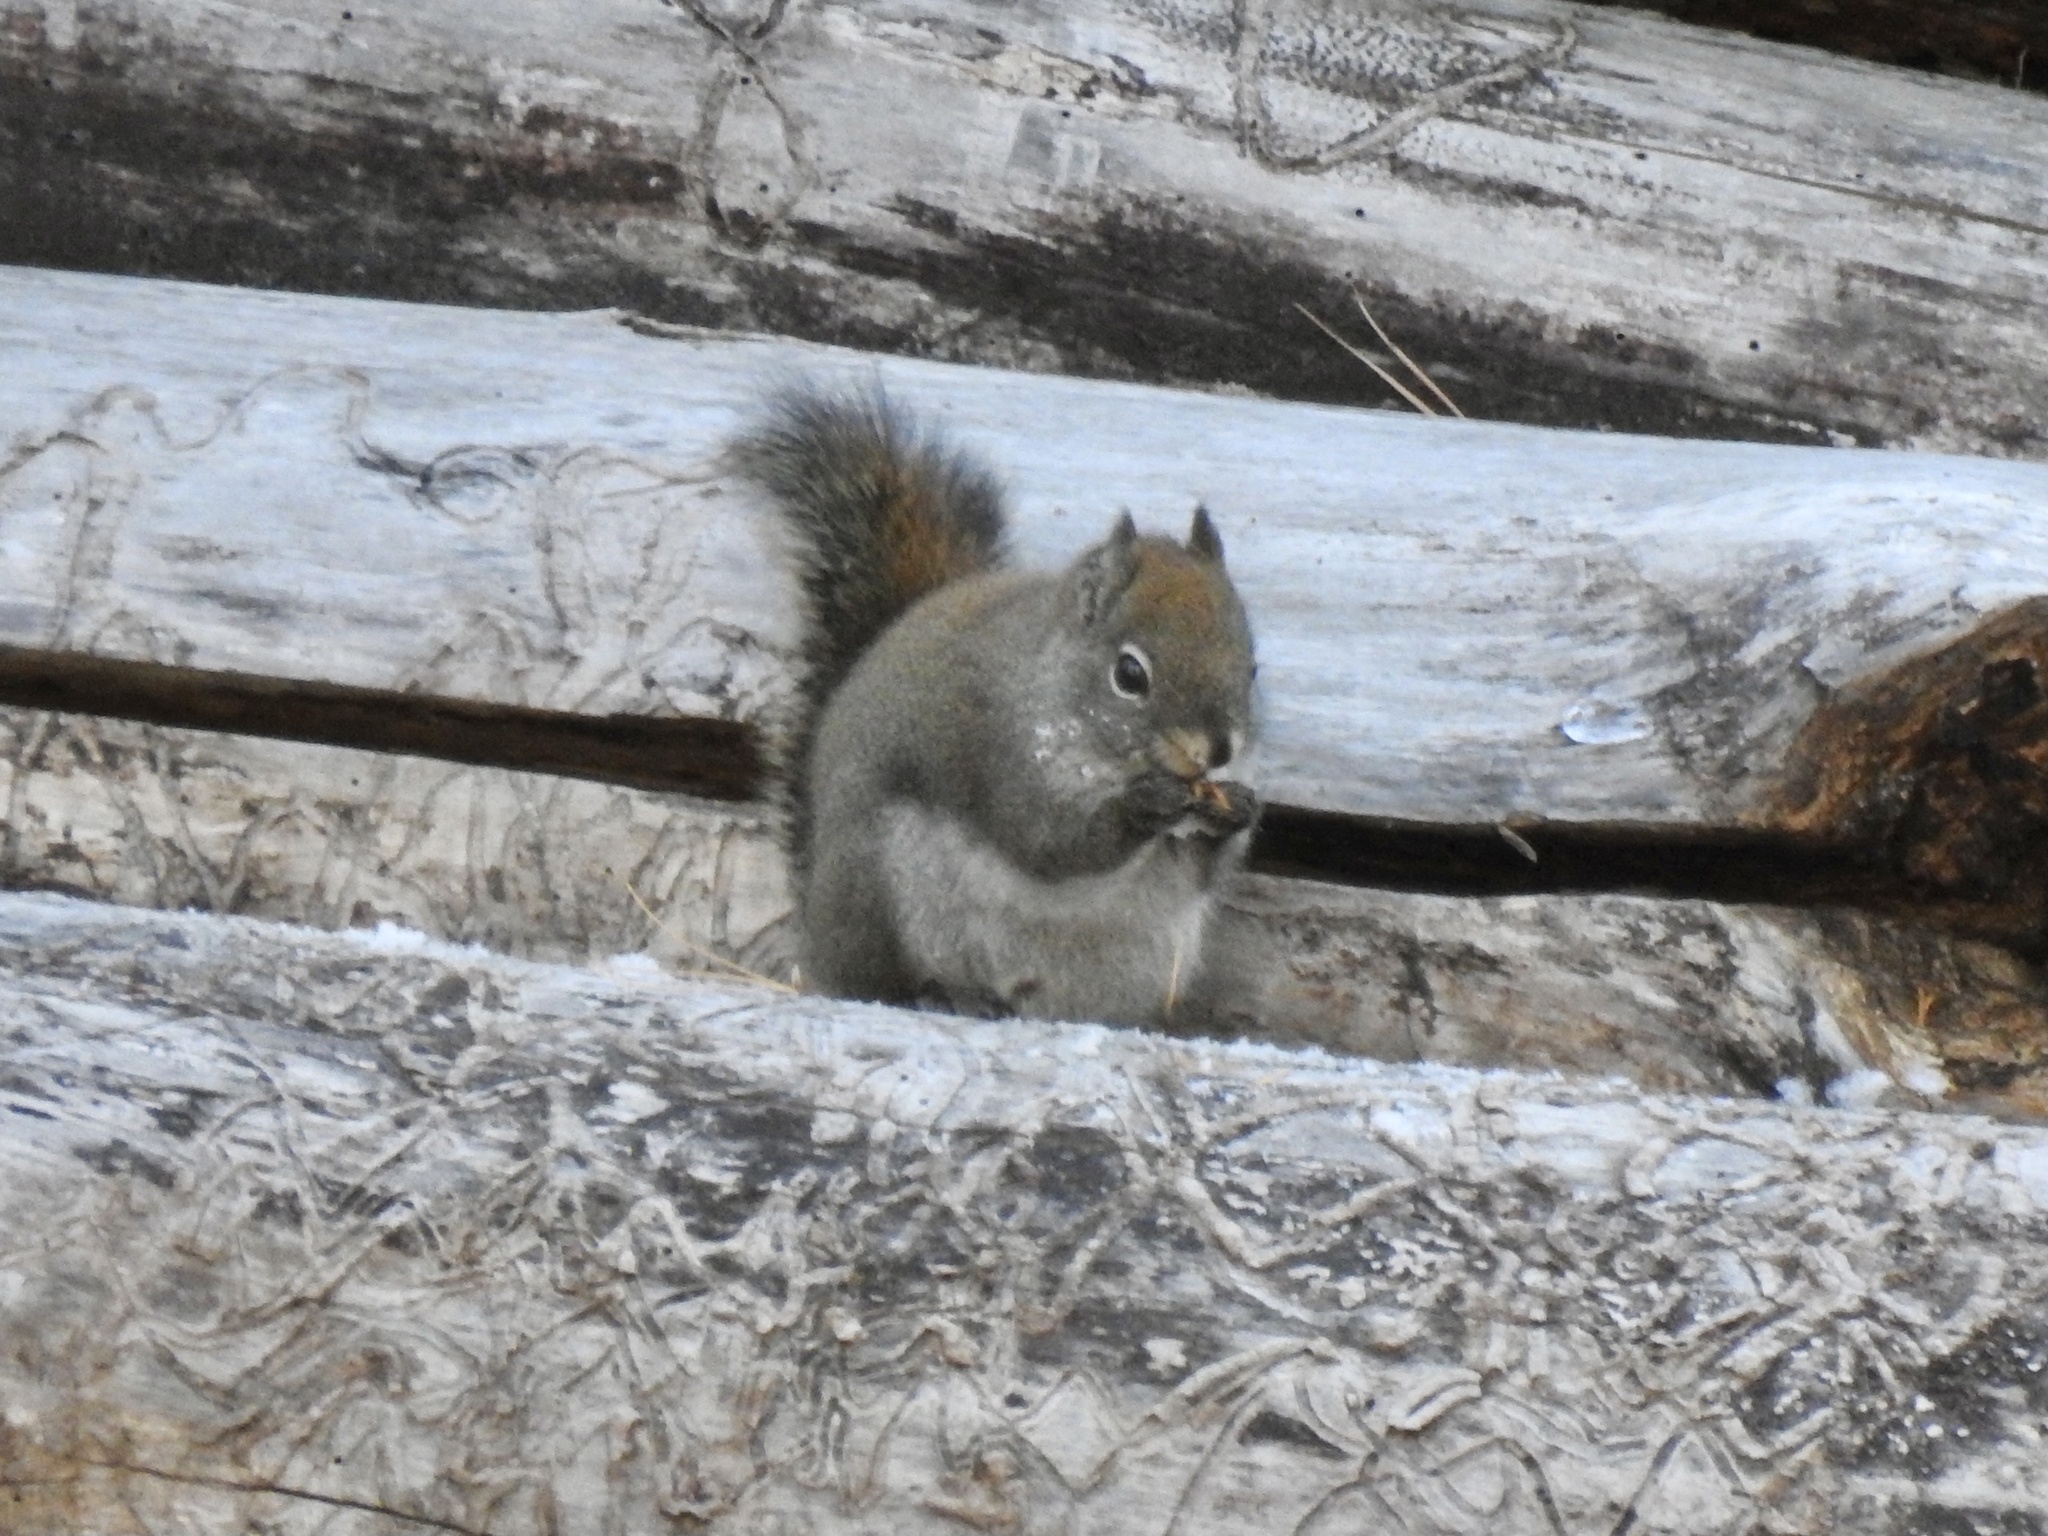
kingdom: Animalia
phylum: Chordata
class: Mammalia
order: Rodentia
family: Sciuridae
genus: Tamiasciurus
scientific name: Tamiasciurus hudsonicus
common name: Red squirrel
